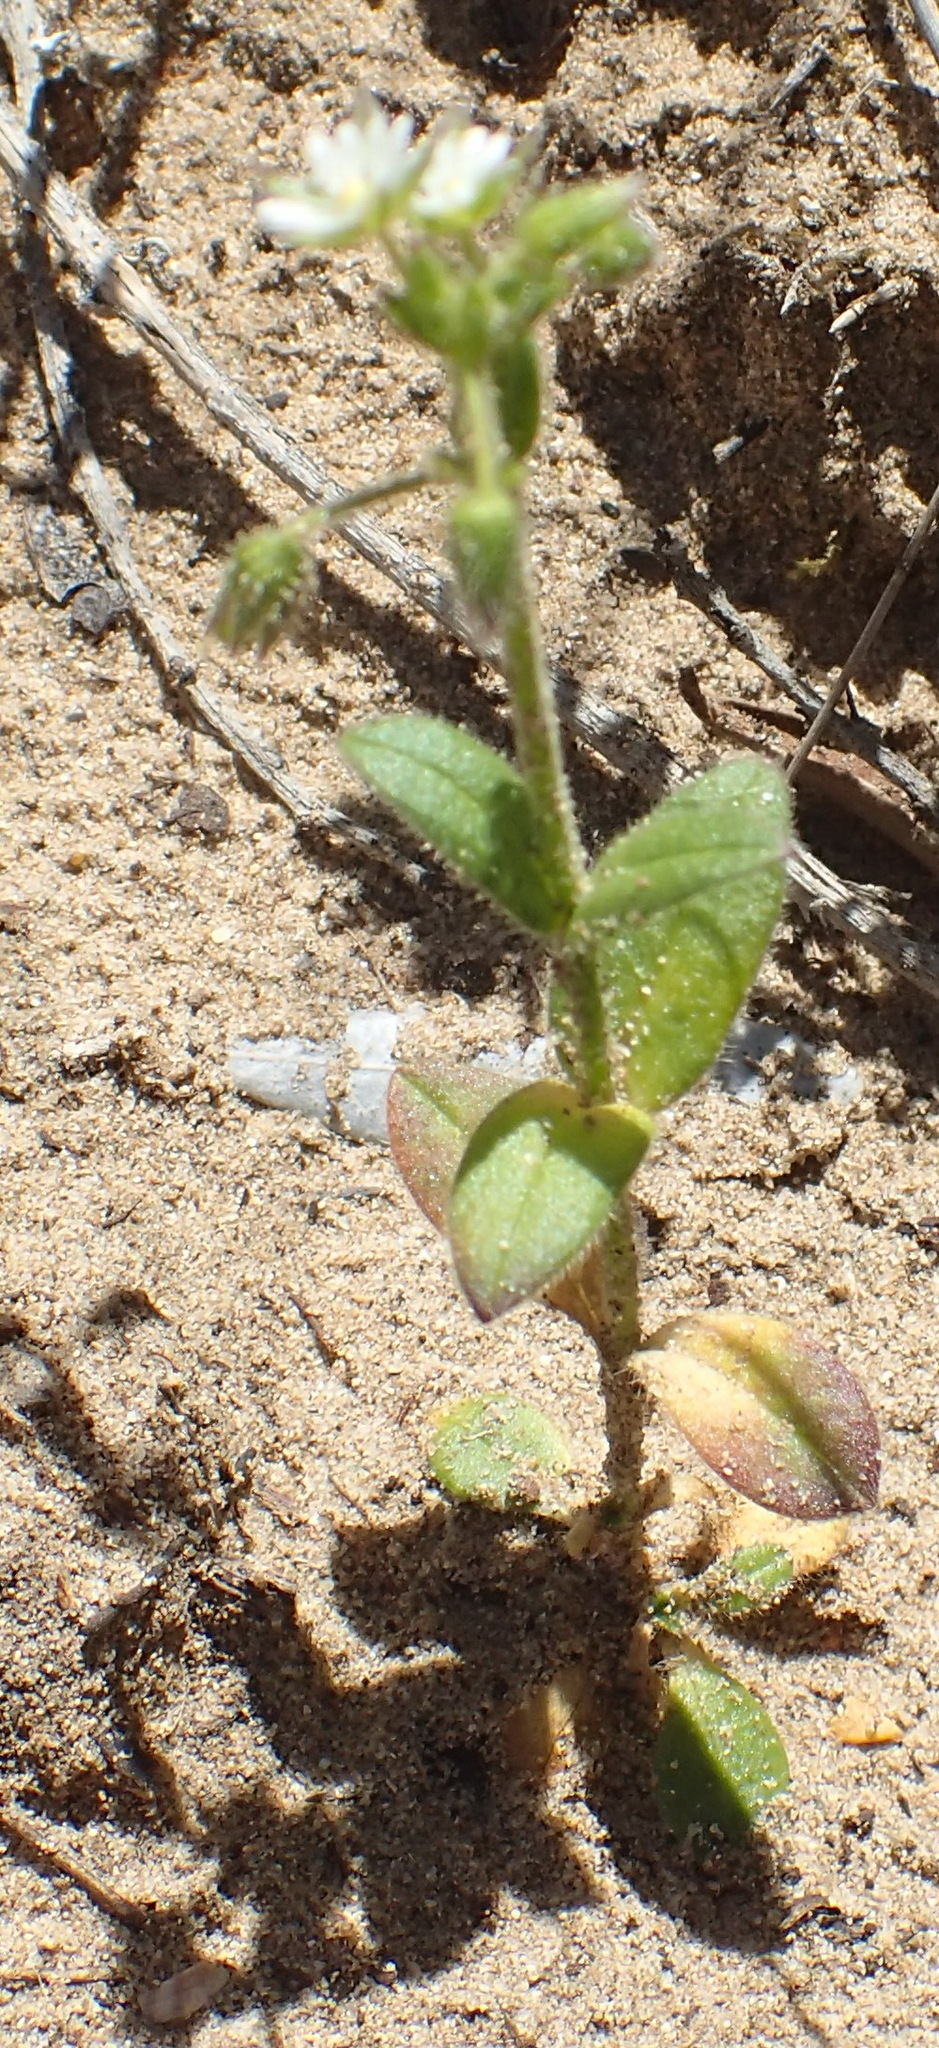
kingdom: Plantae
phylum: Tracheophyta
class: Magnoliopsida
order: Caryophyllales
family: Caryophyllaceae
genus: Cerastium
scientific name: Cerastium glomeratum
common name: Sticky chickweed
